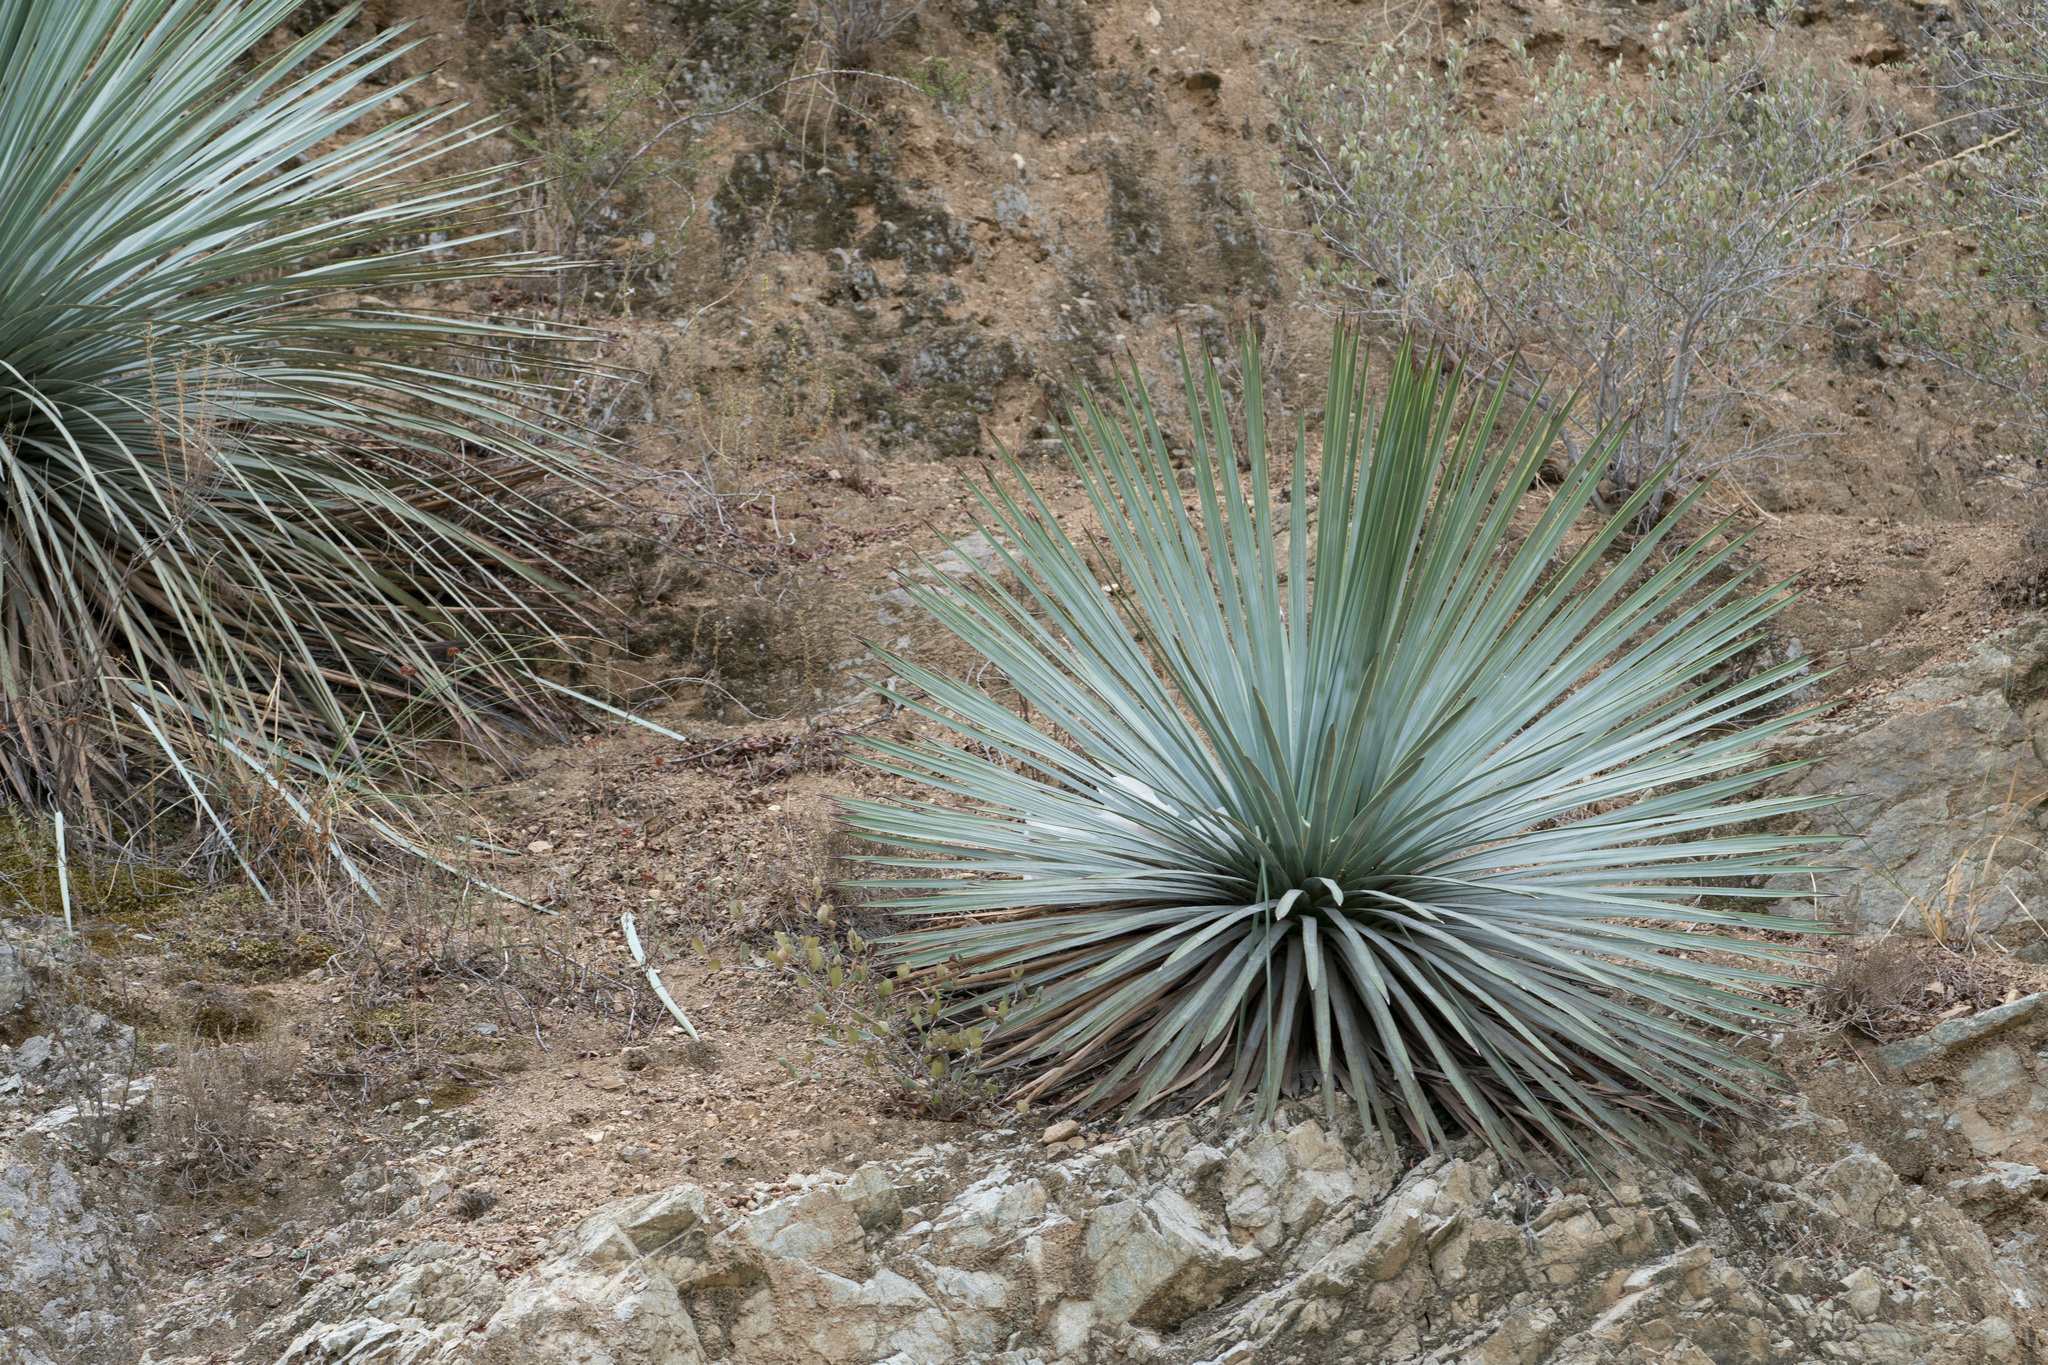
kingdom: Plantae
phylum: Tracheophyta
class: Liliopsida
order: Asparagales
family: Asparagaceae
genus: Hesperoyucca
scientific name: Hesperoyucca whipplei
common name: Our lord's-candle
